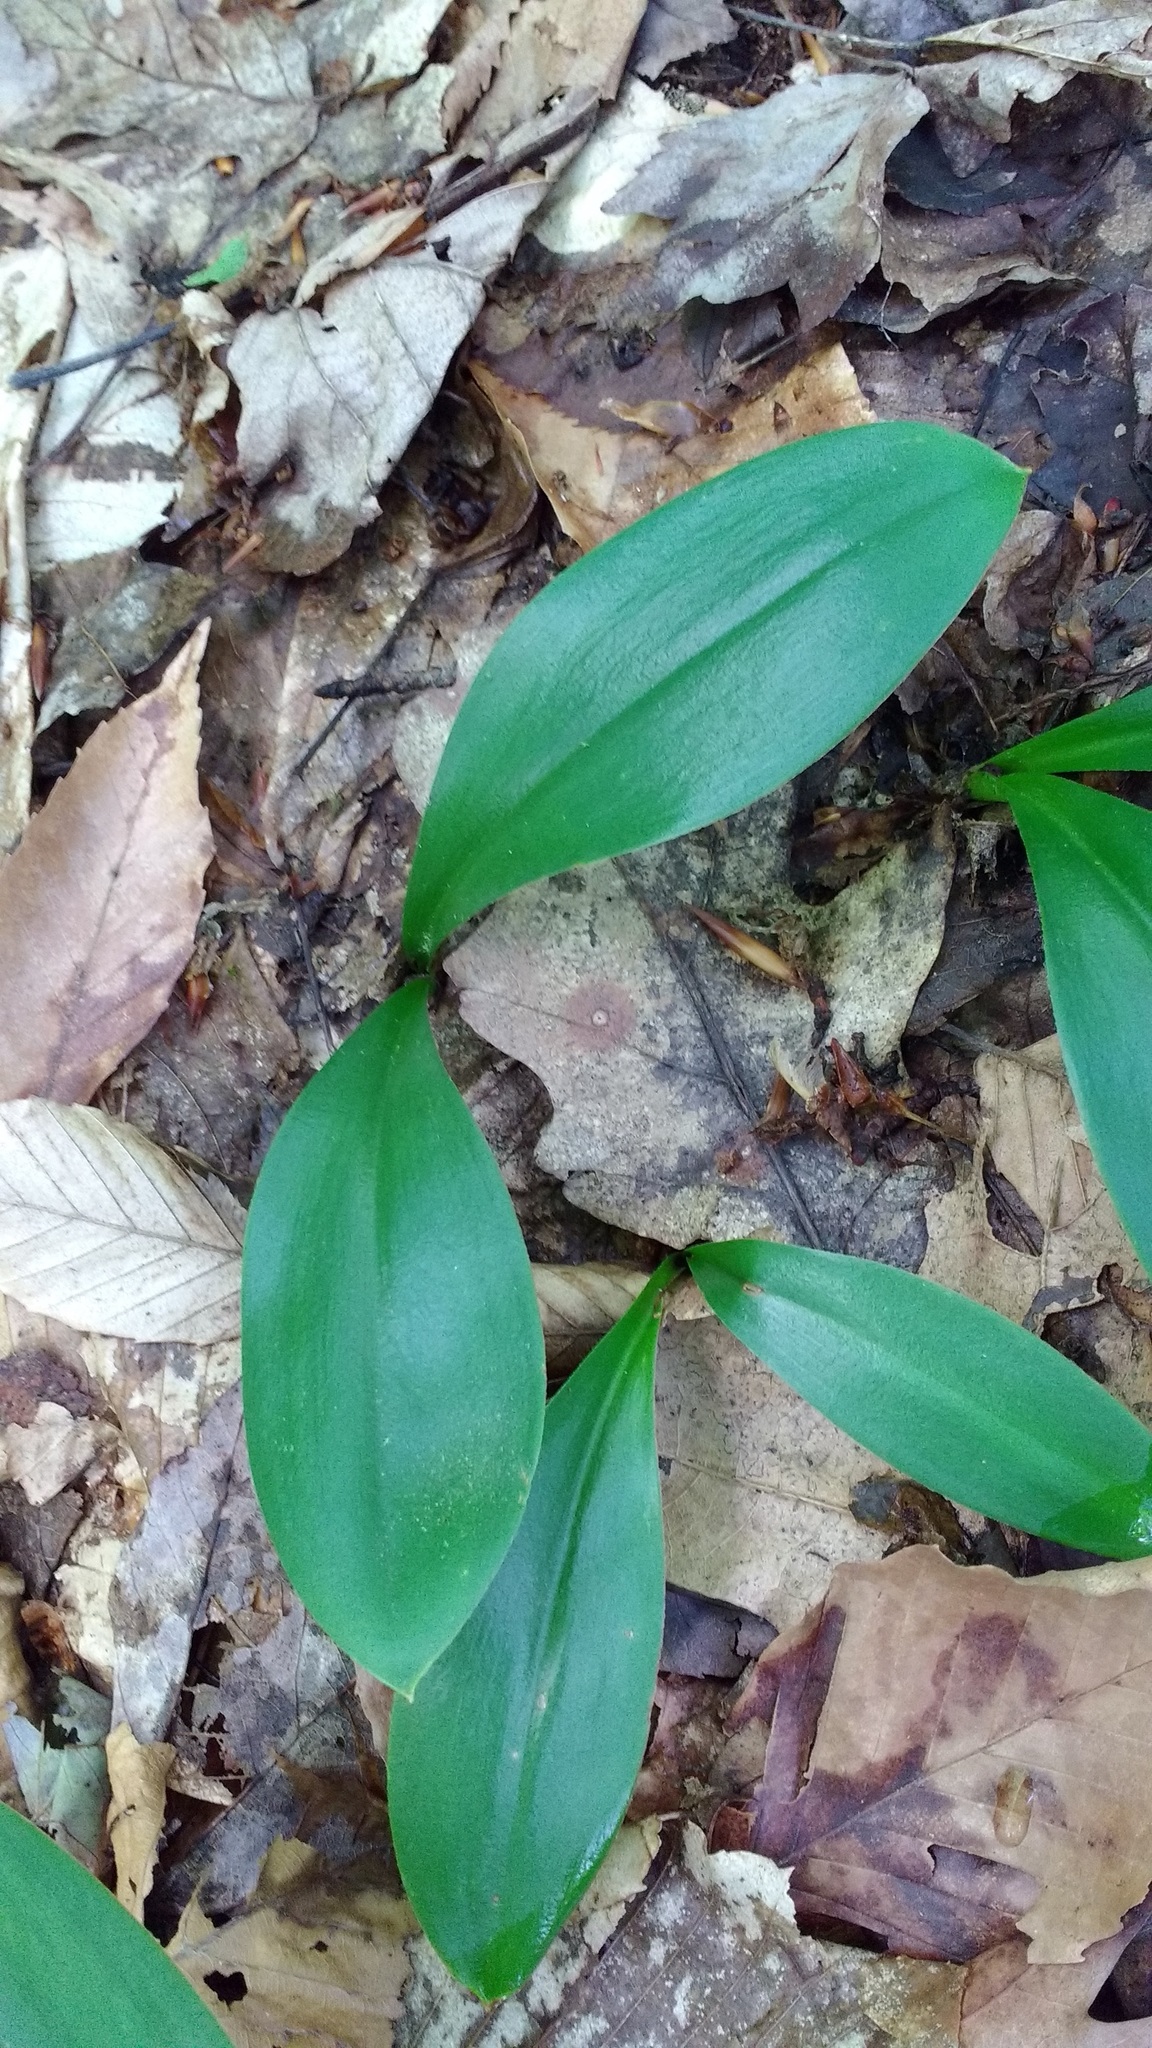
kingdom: Plantae
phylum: Tracheophyta
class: Liliopsida
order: Liliales
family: Liliaceae
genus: Clintonia
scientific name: Clintonia borealis
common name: Yellow clintonia
